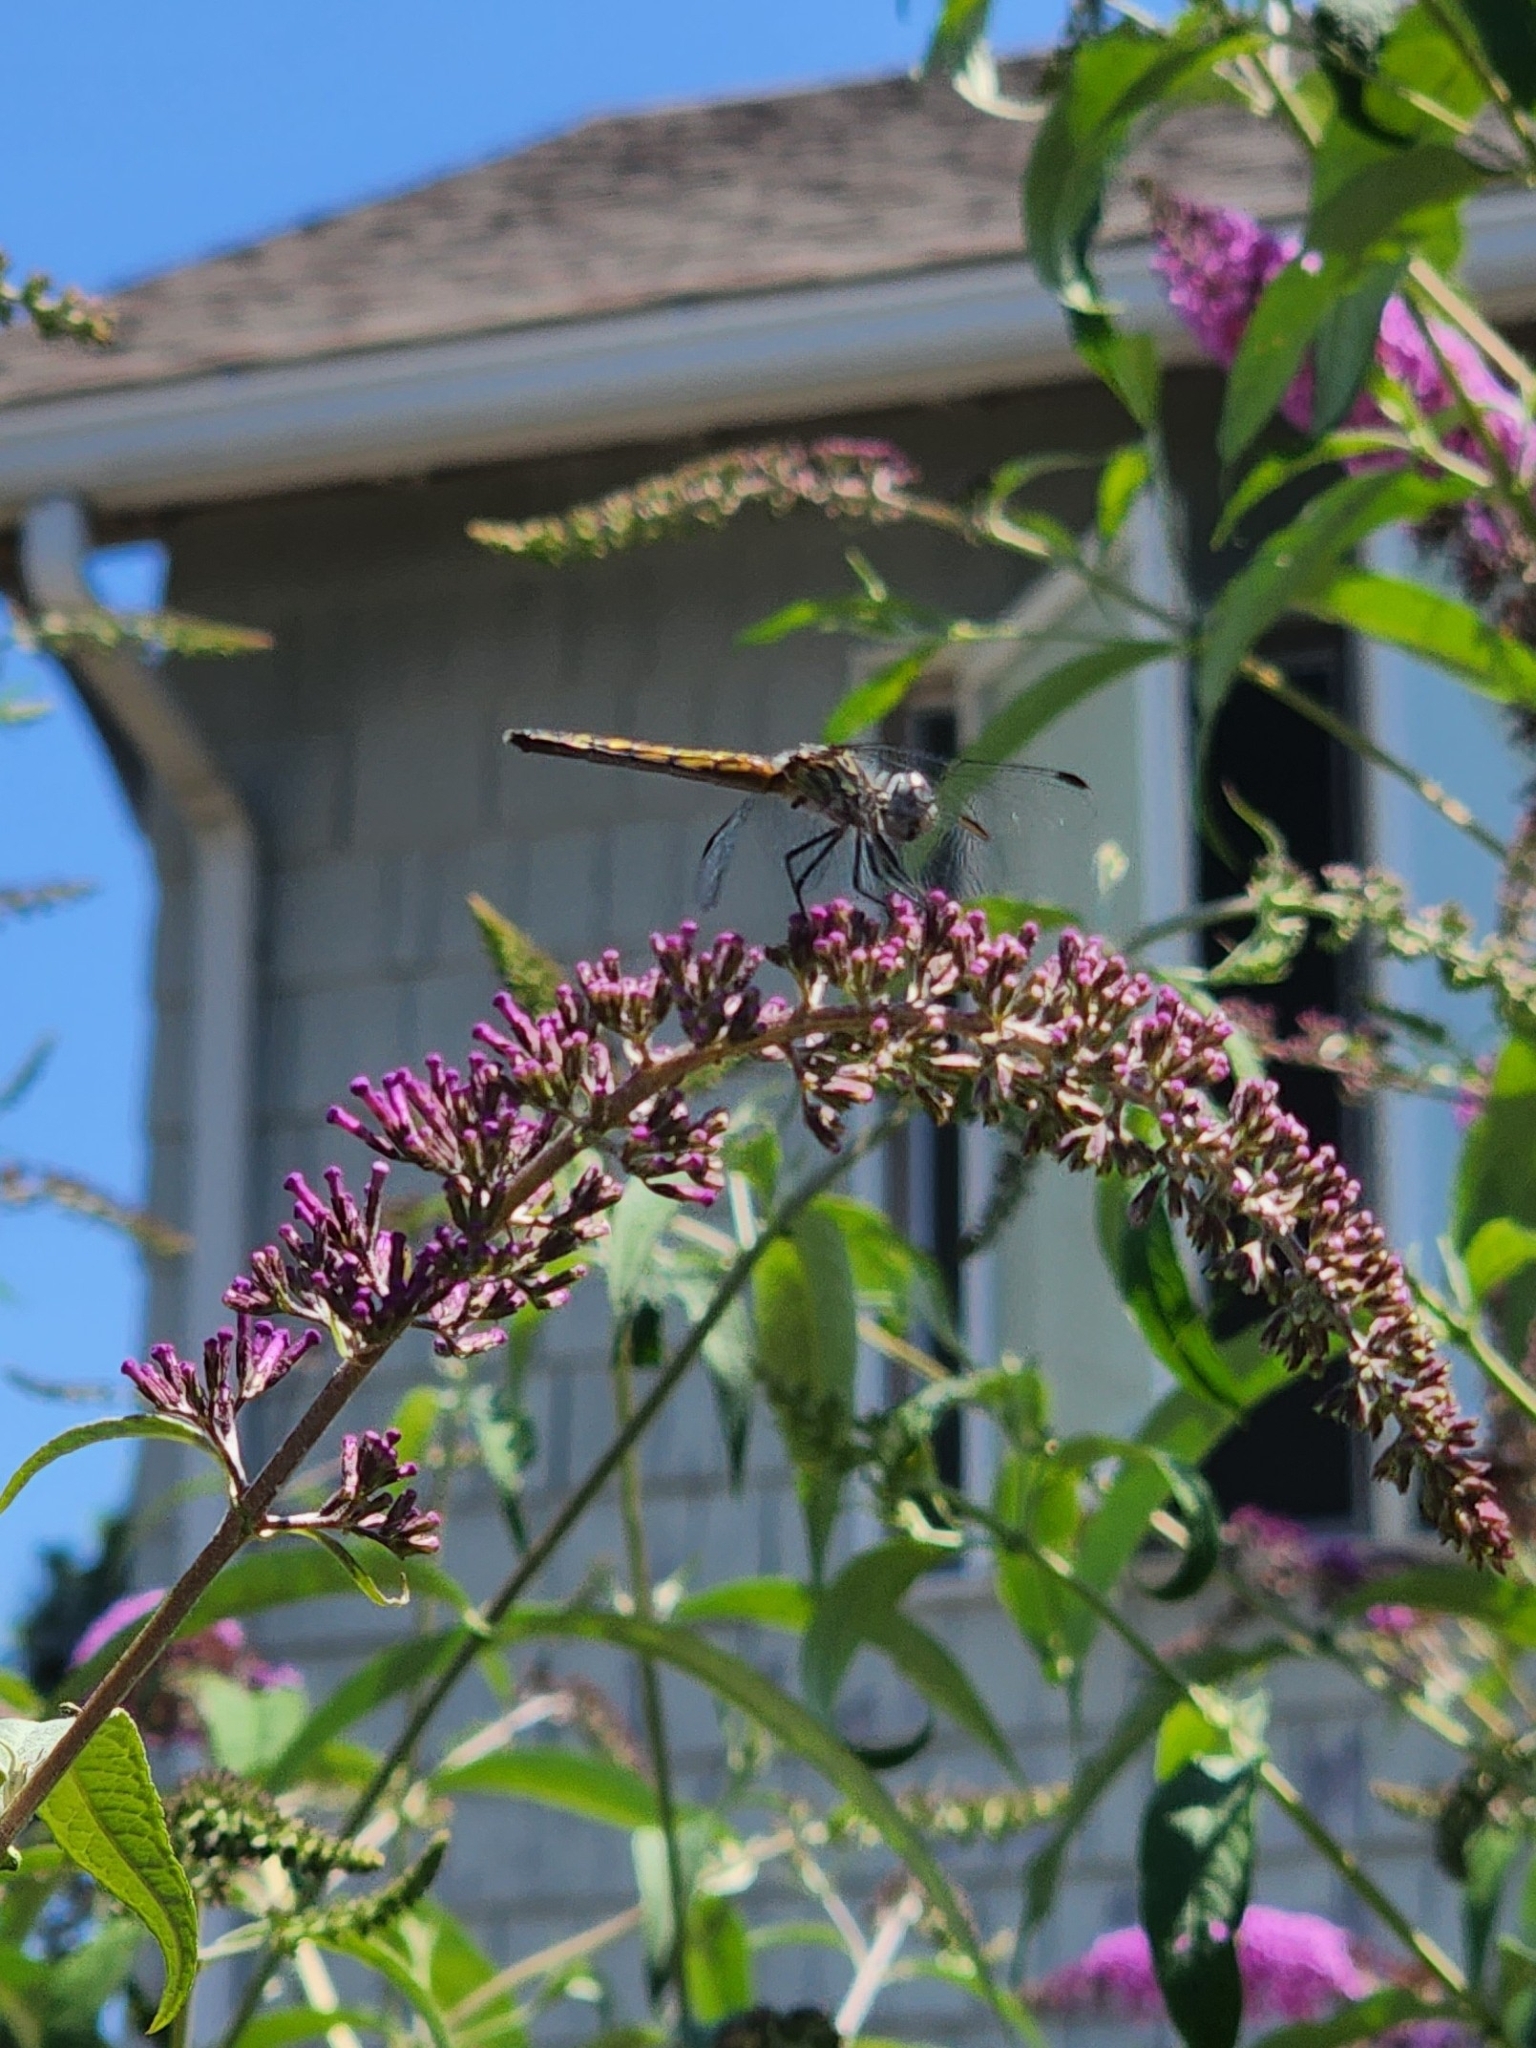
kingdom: Animalia
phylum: Arthropoda
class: Insecta
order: Odonata
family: Libellulidae
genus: Pachydiplax
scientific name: Pachydiplax longipennis
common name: Blue dasher
